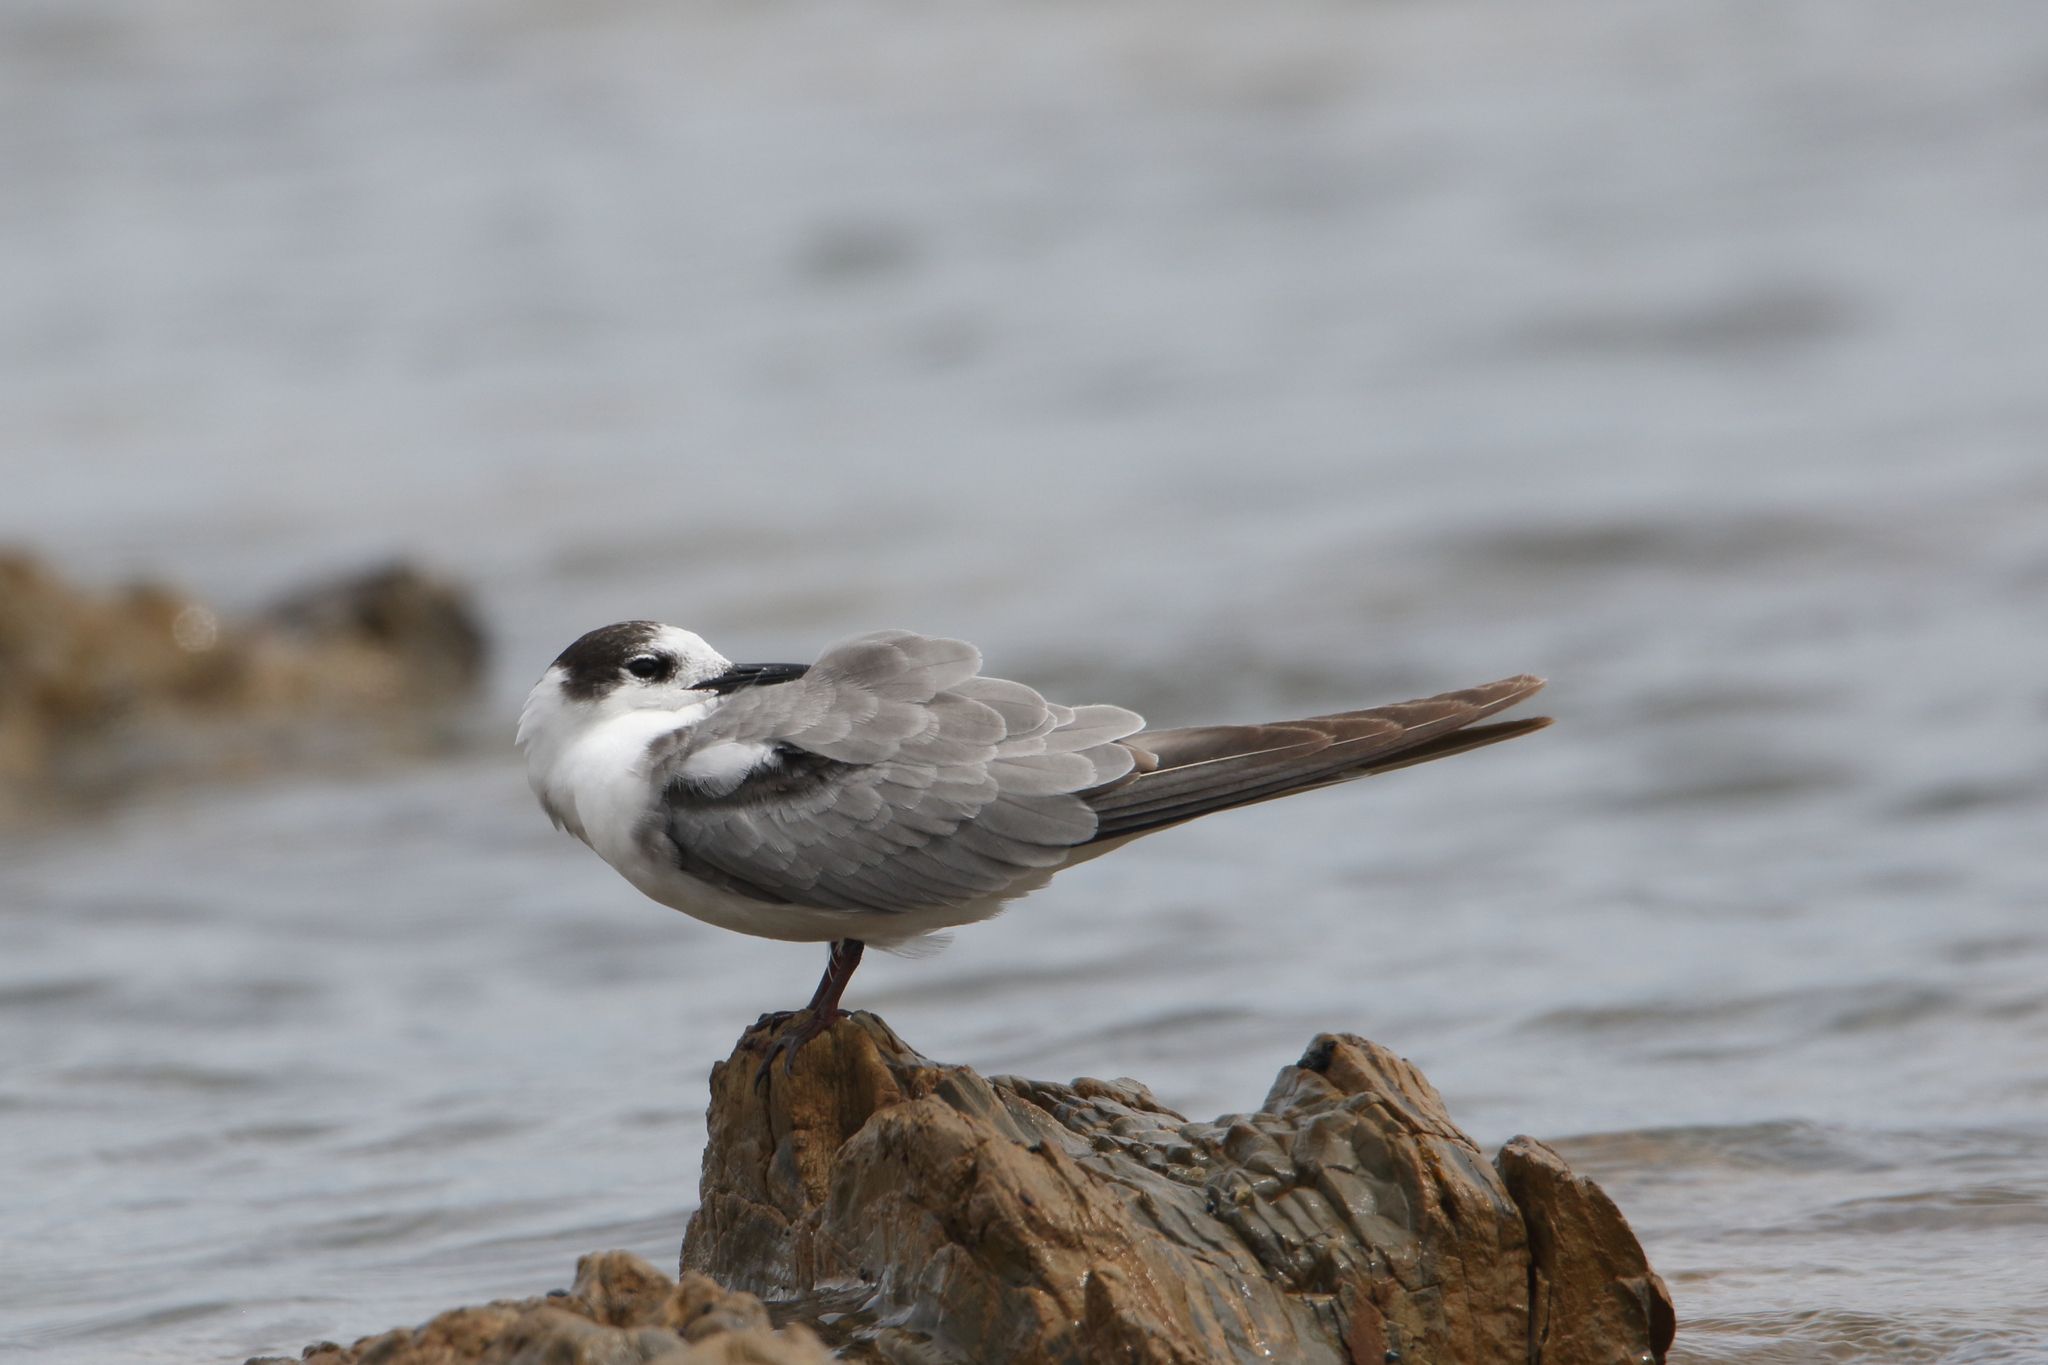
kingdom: Animalia
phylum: Chordata
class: Aves
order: Charadriiformes
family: Laridae
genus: Chlidonias
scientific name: Chlidonias niger
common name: Black tern
